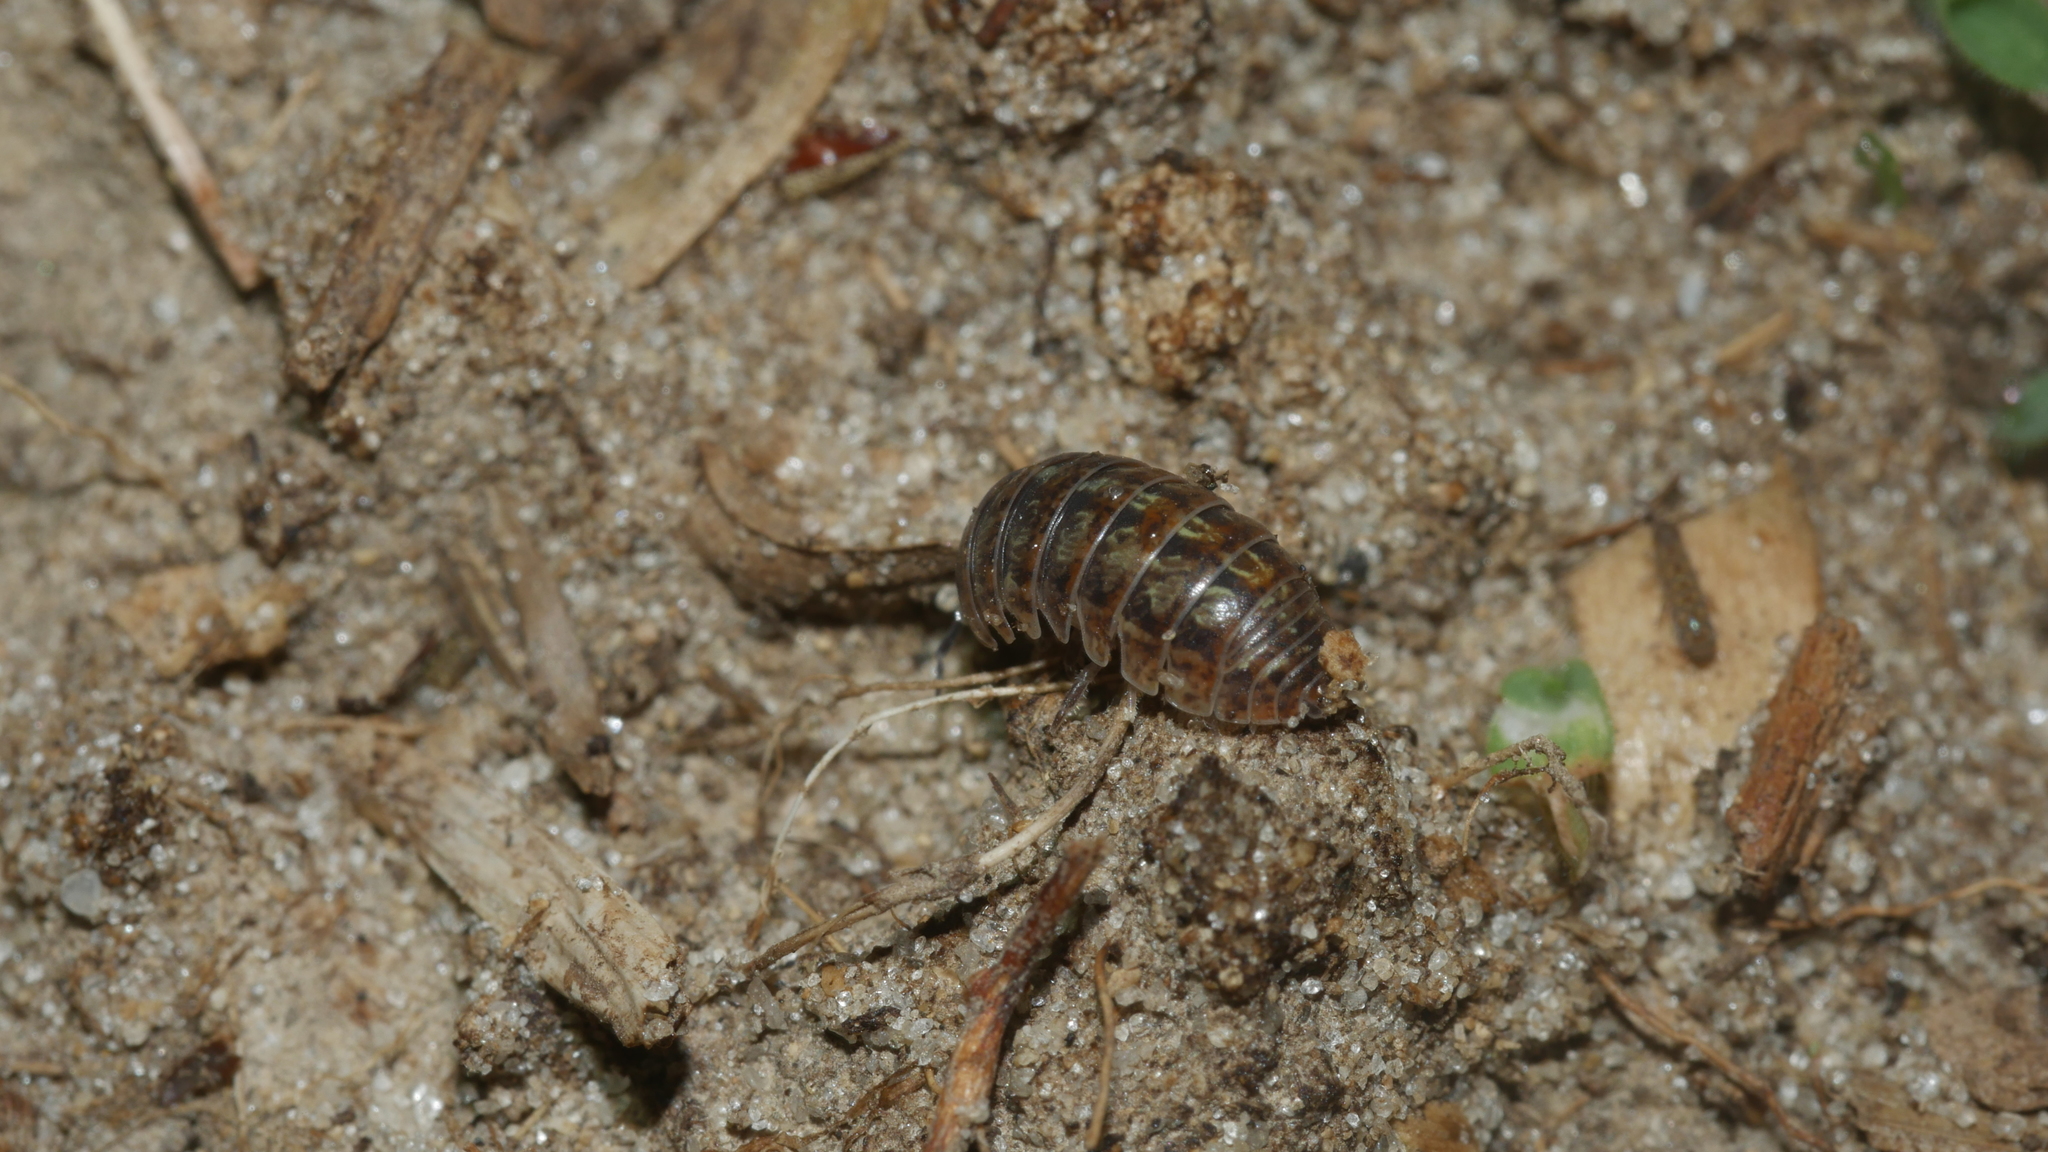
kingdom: Animalia
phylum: Arthropoda
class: Malacostraca
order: Isopoda
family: Armadillidiidae
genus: Armadillidium
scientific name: Armadillidium vulgare
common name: Common pill woodlouse
